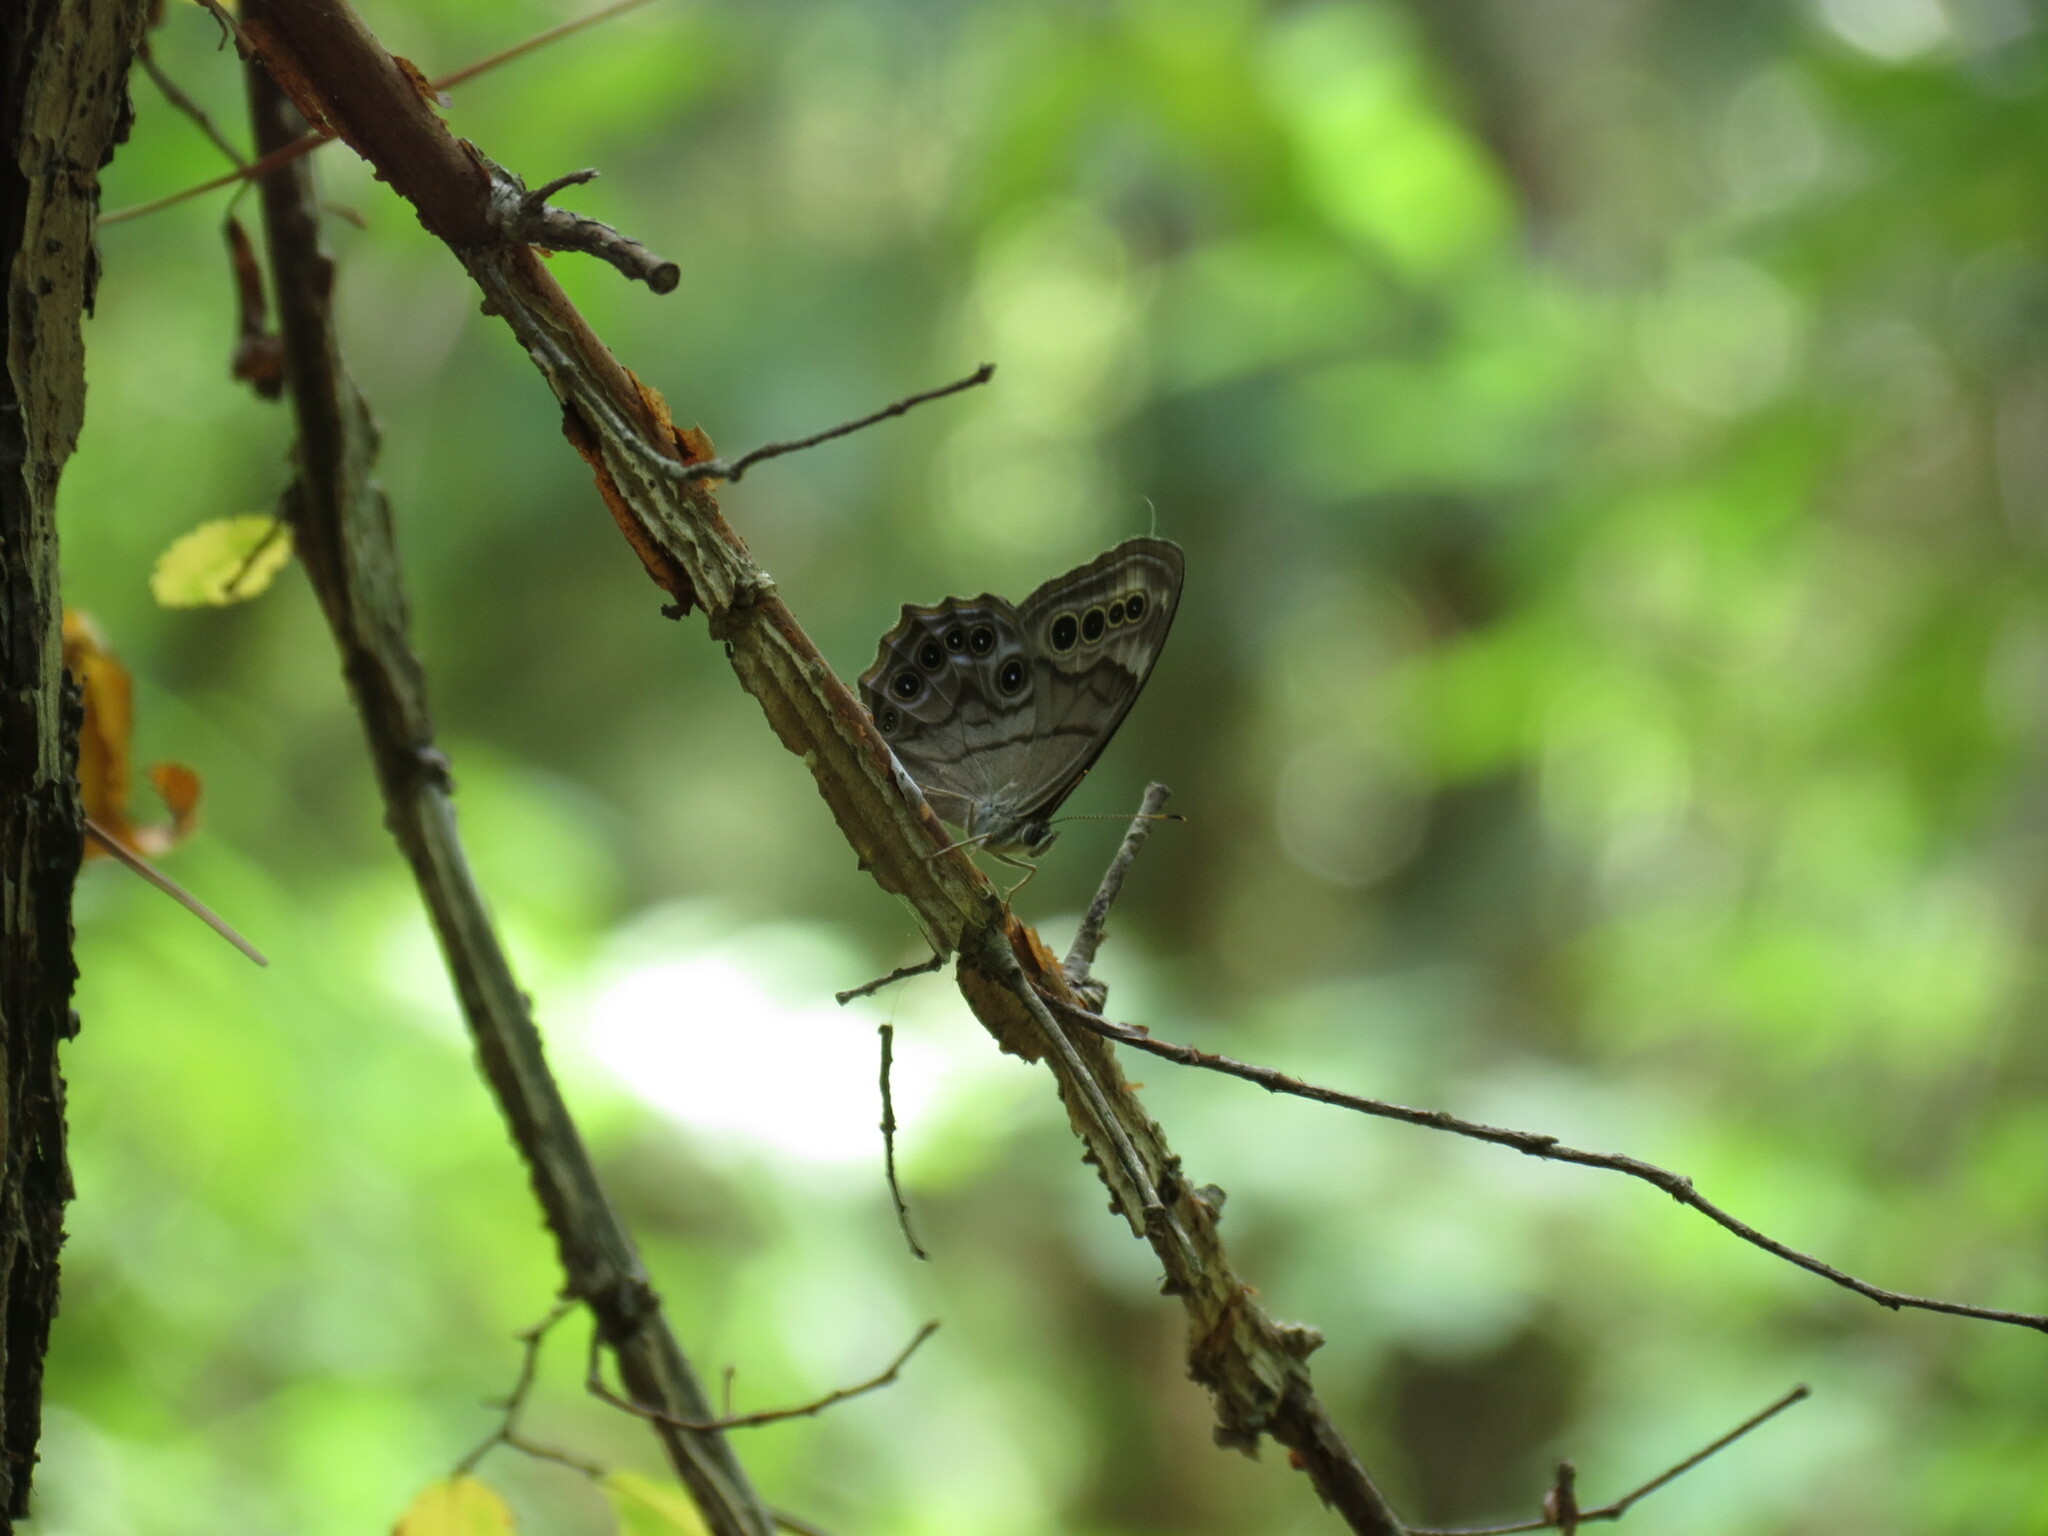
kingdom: Animalia
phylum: Arthropoda
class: Insecta
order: Lepidoptera
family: Nymphalidae
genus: Lethe
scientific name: Lethe anthedon
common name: Northern pearly-eye
